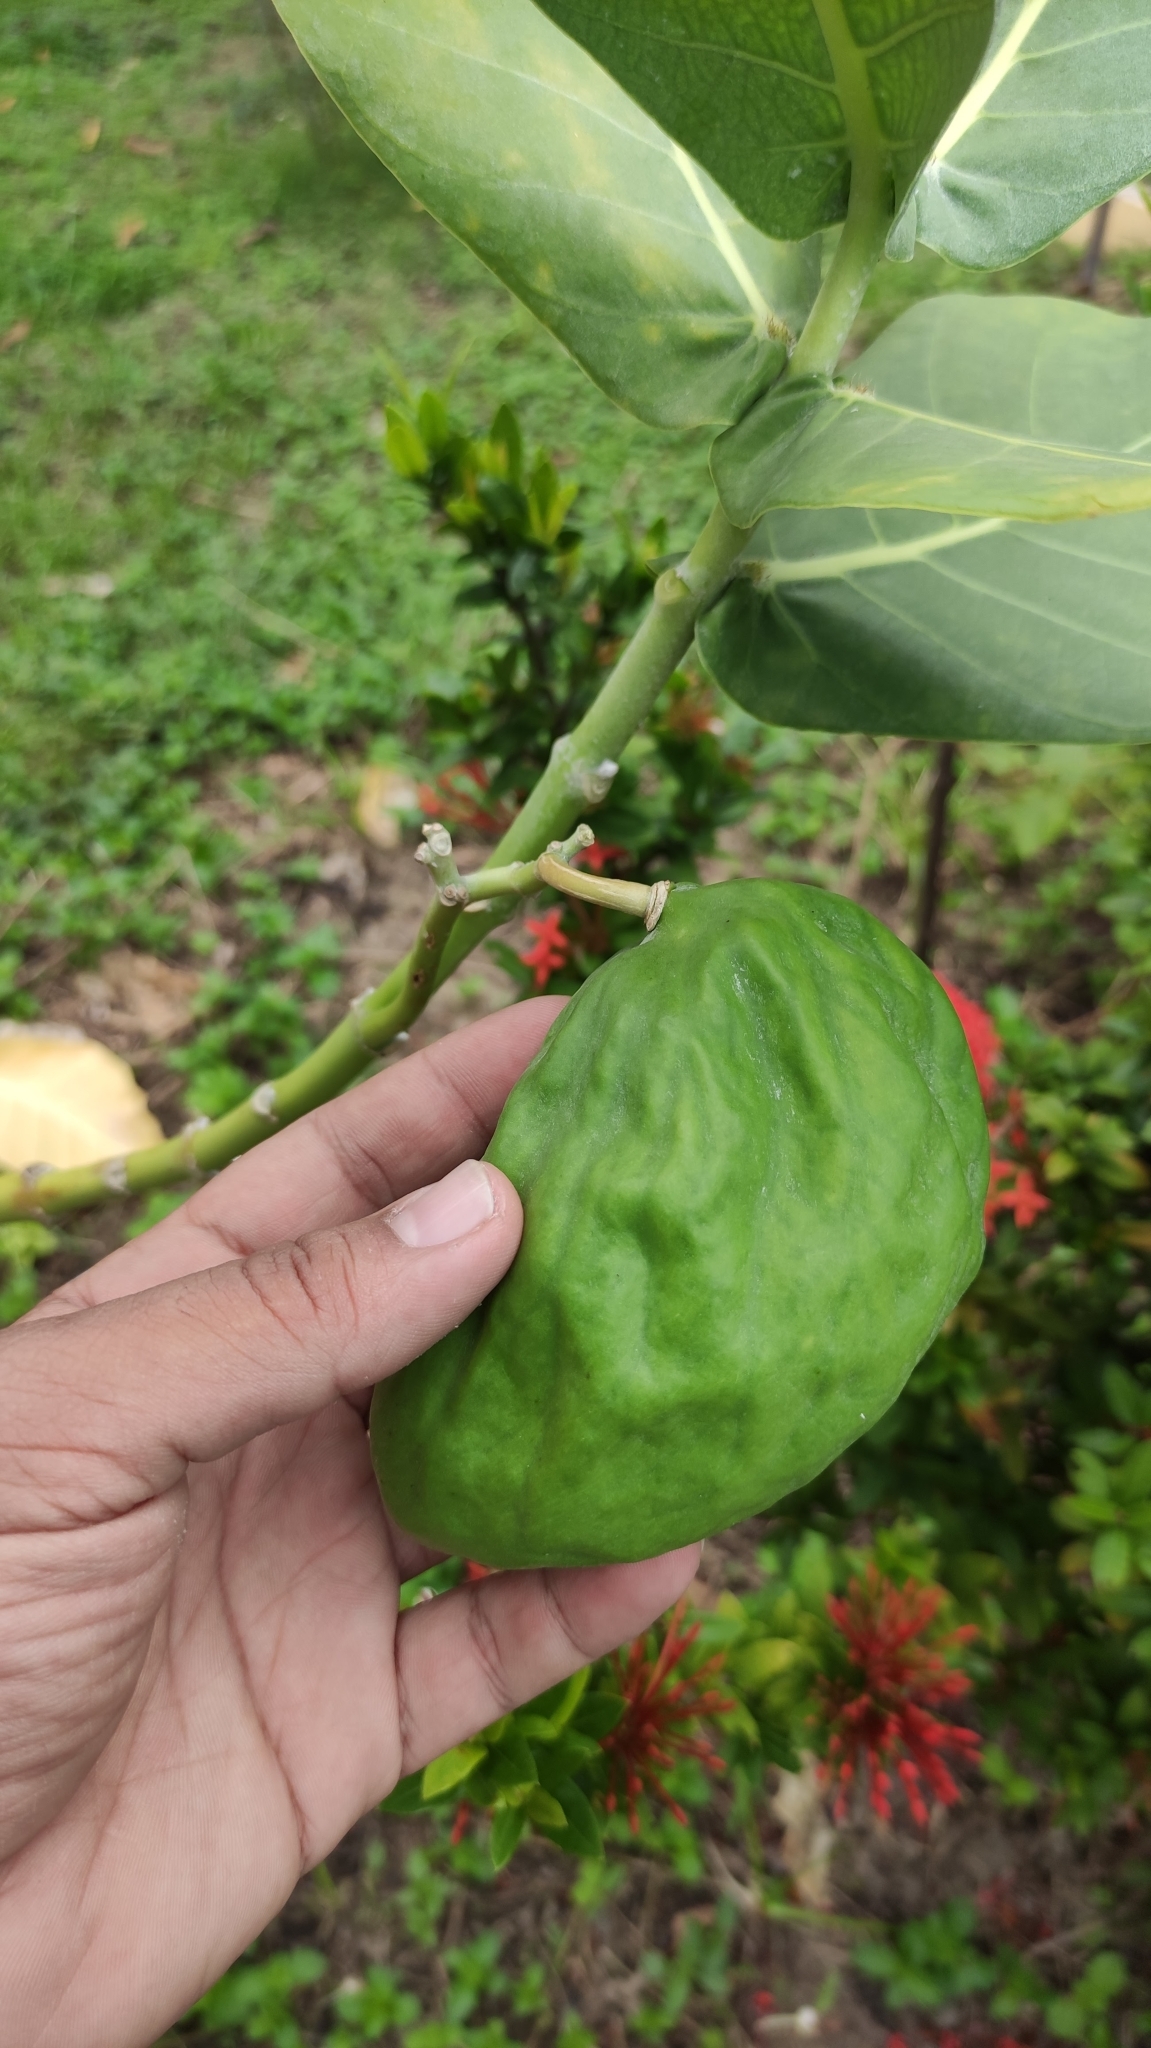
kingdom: Plantae
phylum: Tracheophyta
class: Magnoliopsida
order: Gentianales
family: Apocynaceae
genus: Calotropis
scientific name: Calotropis procera
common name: Roostertree
